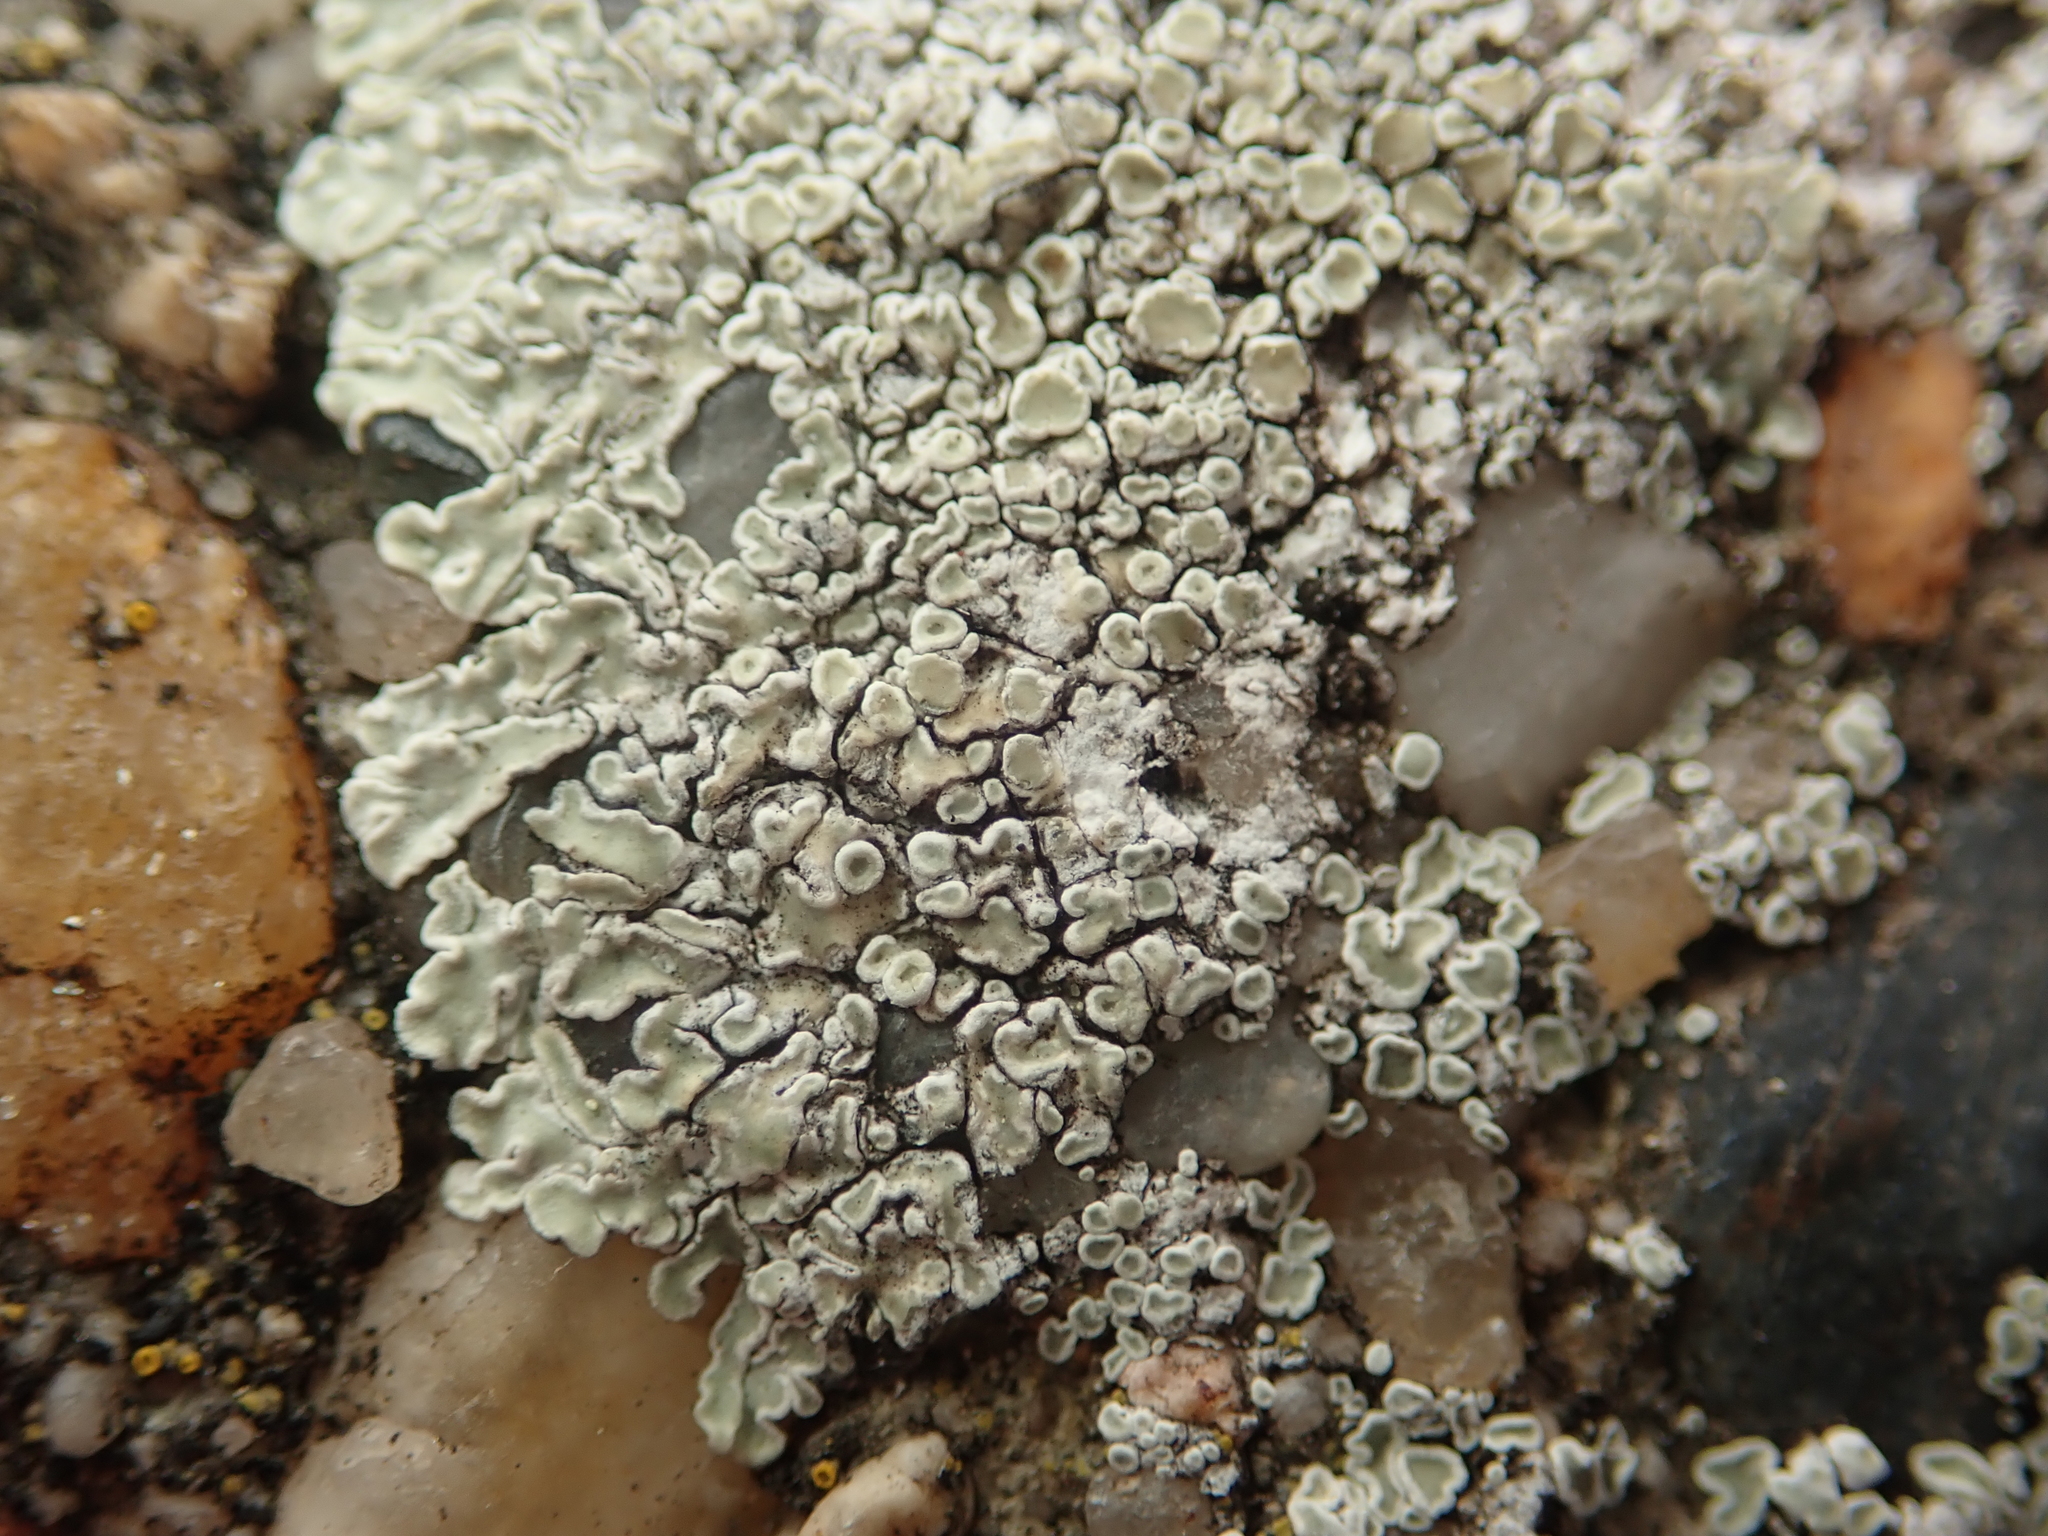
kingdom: Fungi
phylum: Ascomycota
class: Lecanoromycetes
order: Lecanorales
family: Lecanoraceae
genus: Protoparmeliopsis
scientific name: Protoparmeliopsis muralis
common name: Stonewall rim lichen
